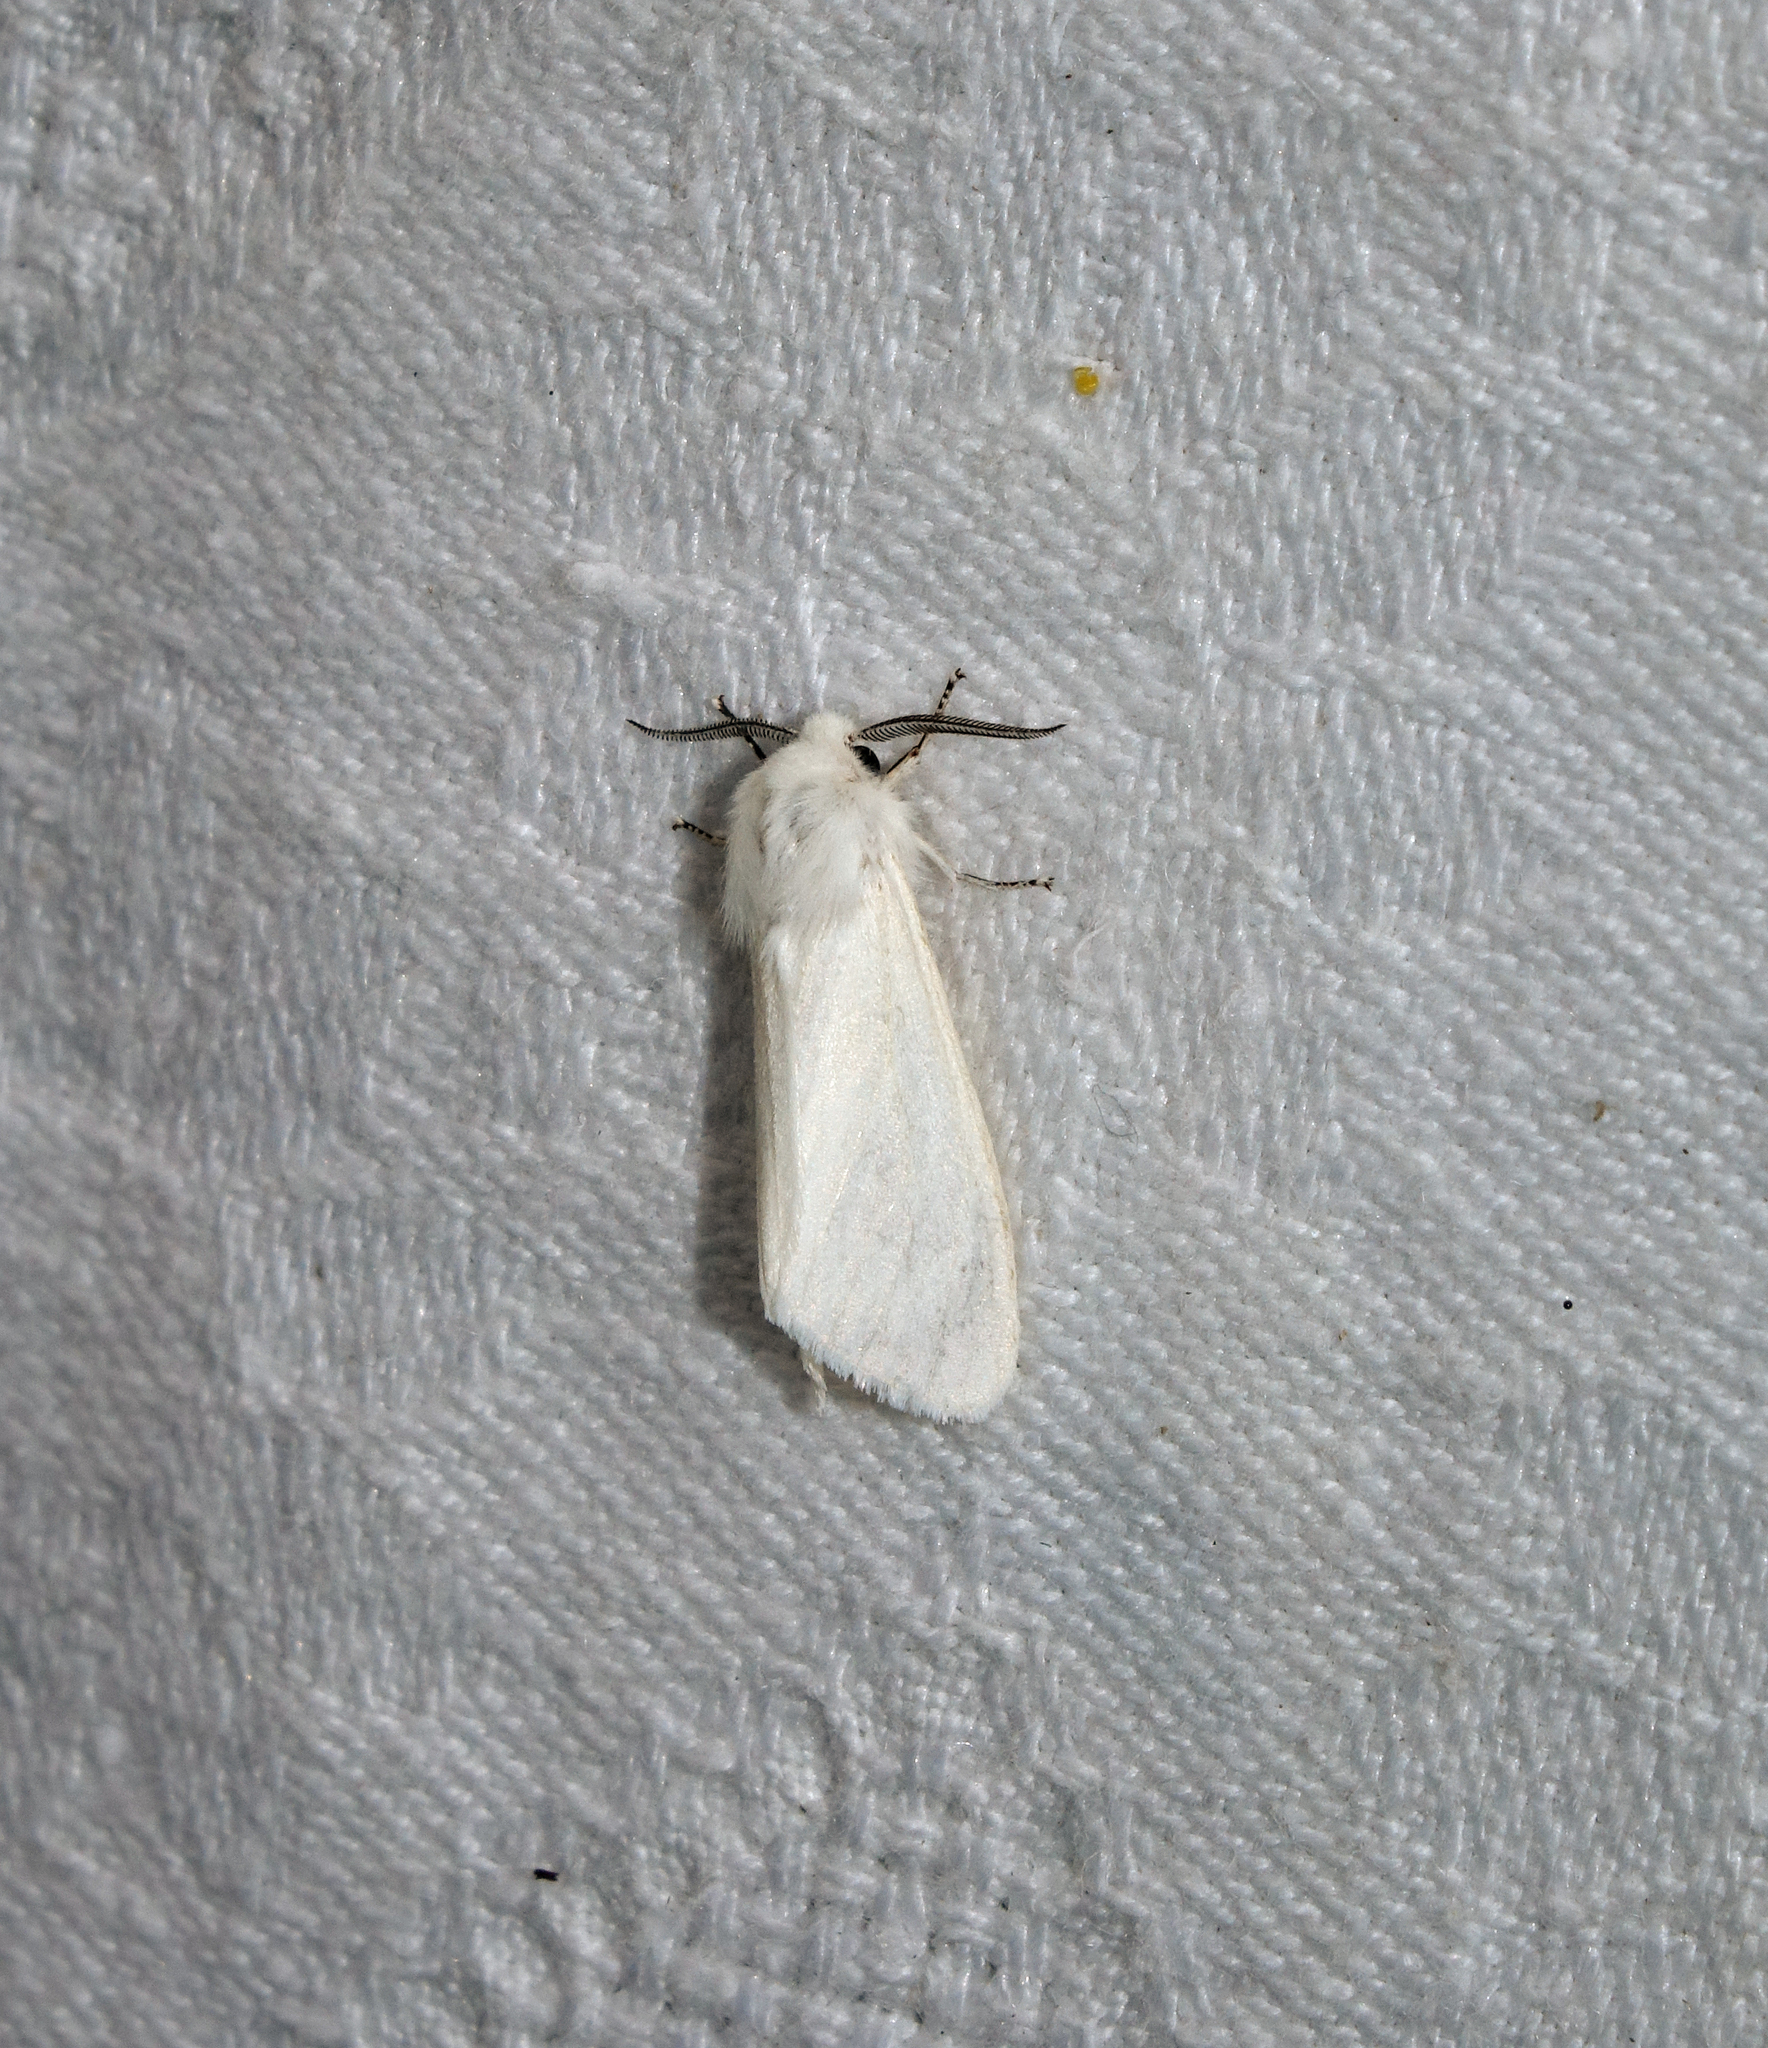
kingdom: Animalia
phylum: Arthropoda
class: Insecta
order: Lepidoptera
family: Erebidae
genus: Hyphantria
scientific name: Hyphantria cunea
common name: American white moth
